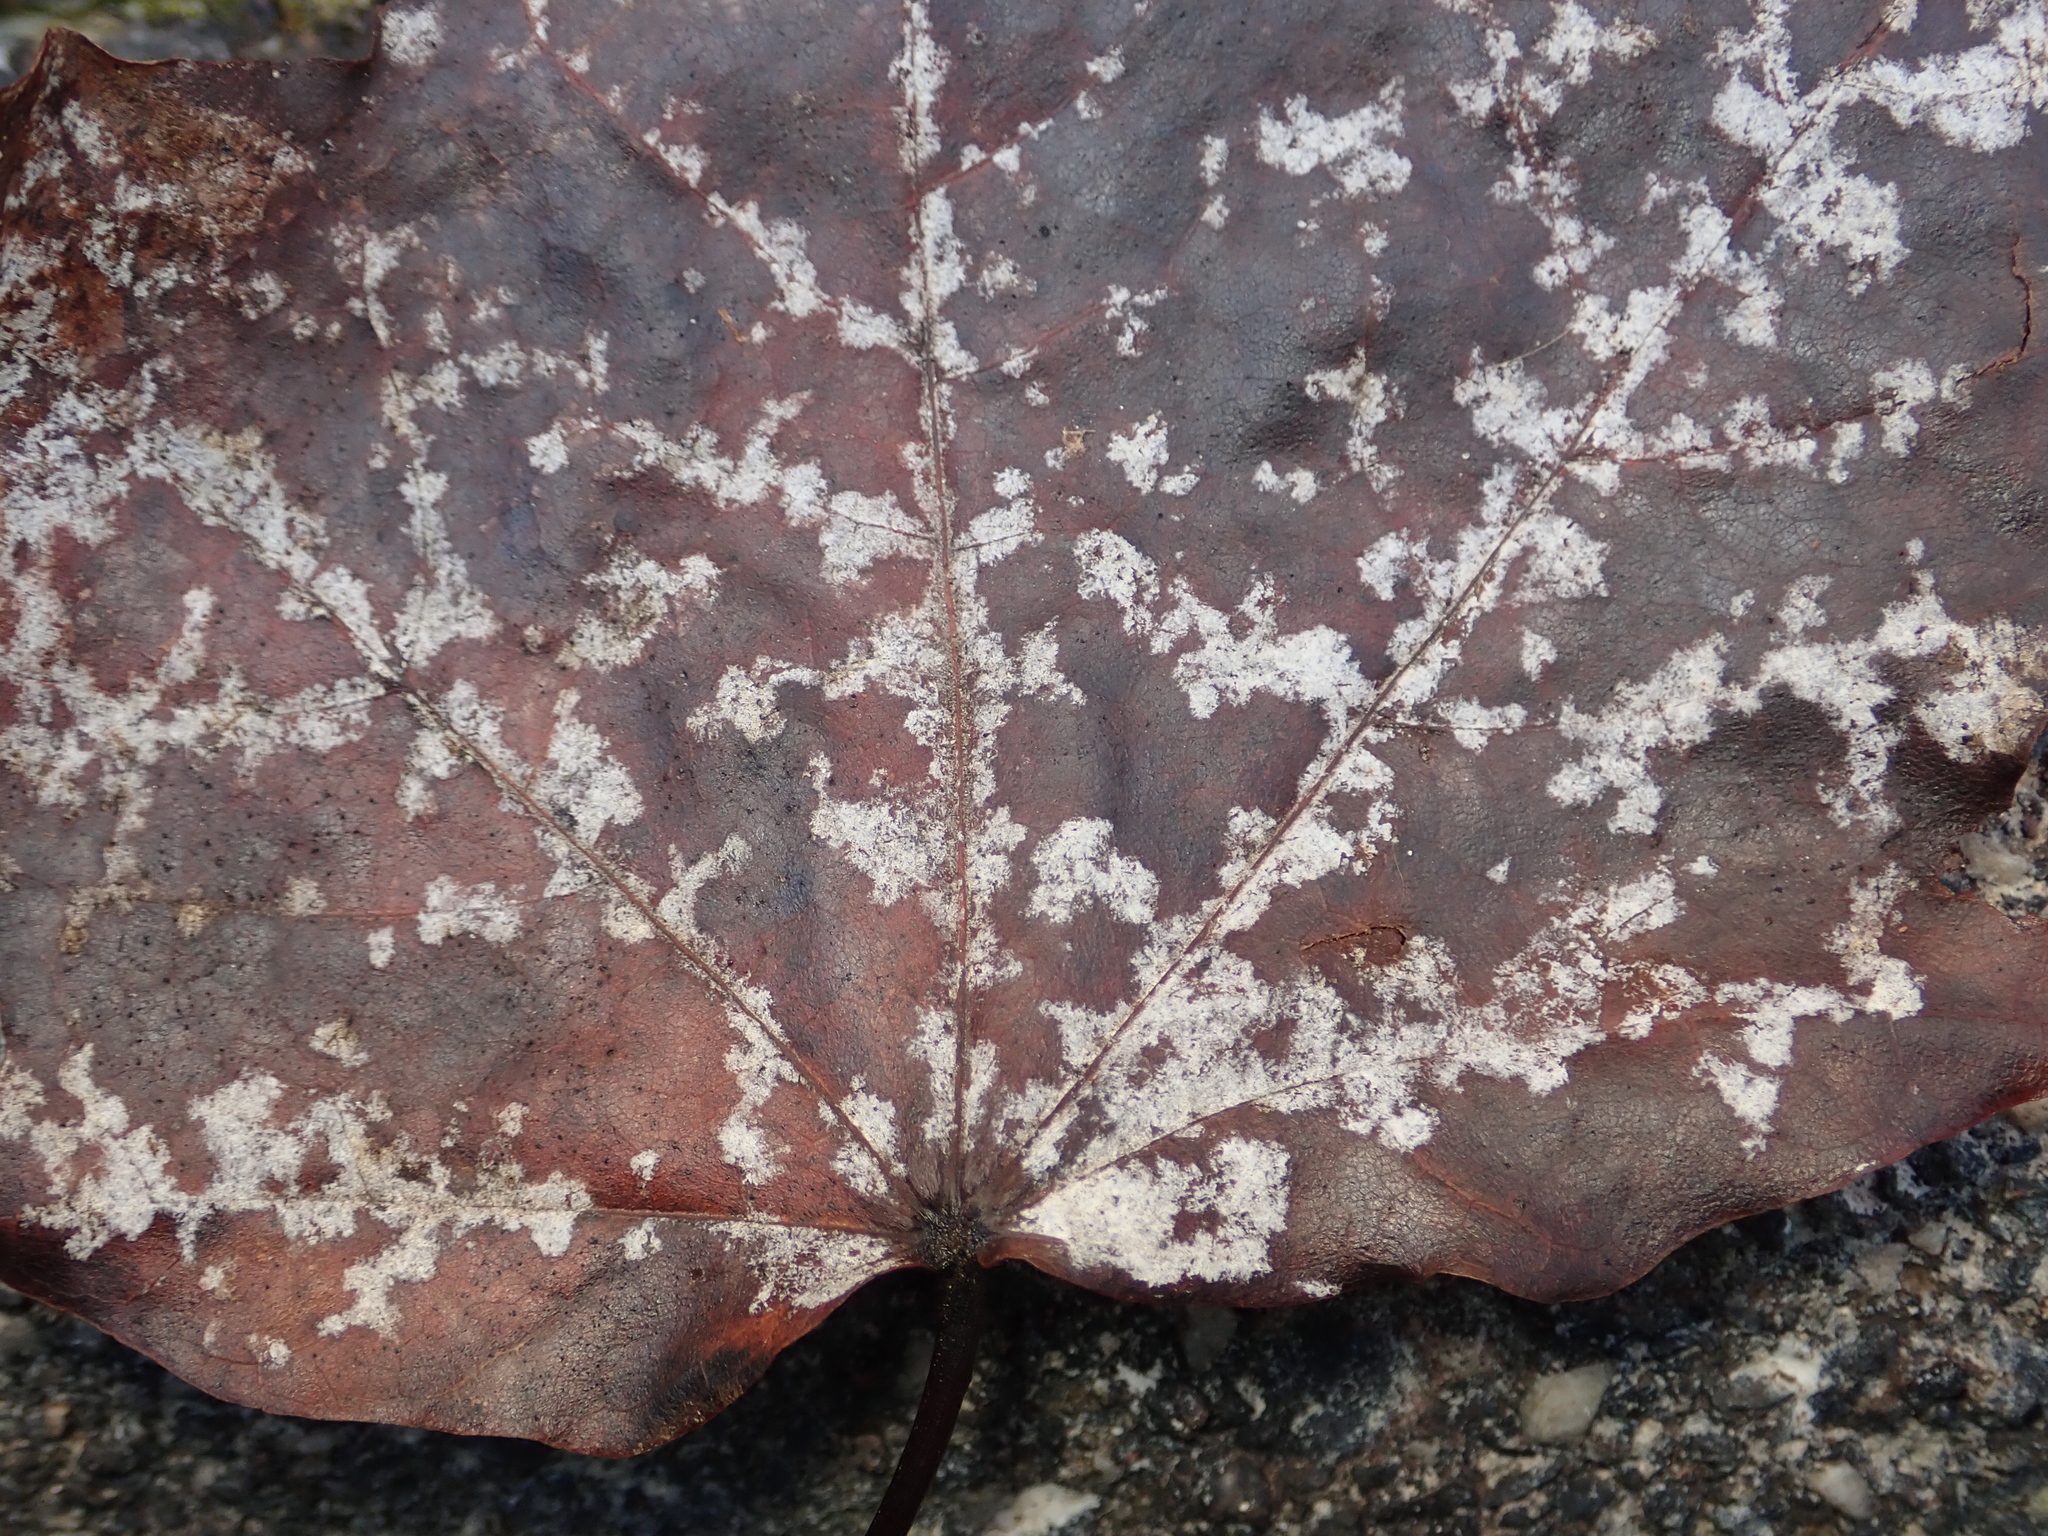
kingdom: Fungi
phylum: Ascomycota
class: Leotiomycetes
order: Helotiales
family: Erysiphaceae
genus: Sawadaea
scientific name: Sawadaea tulasnei
